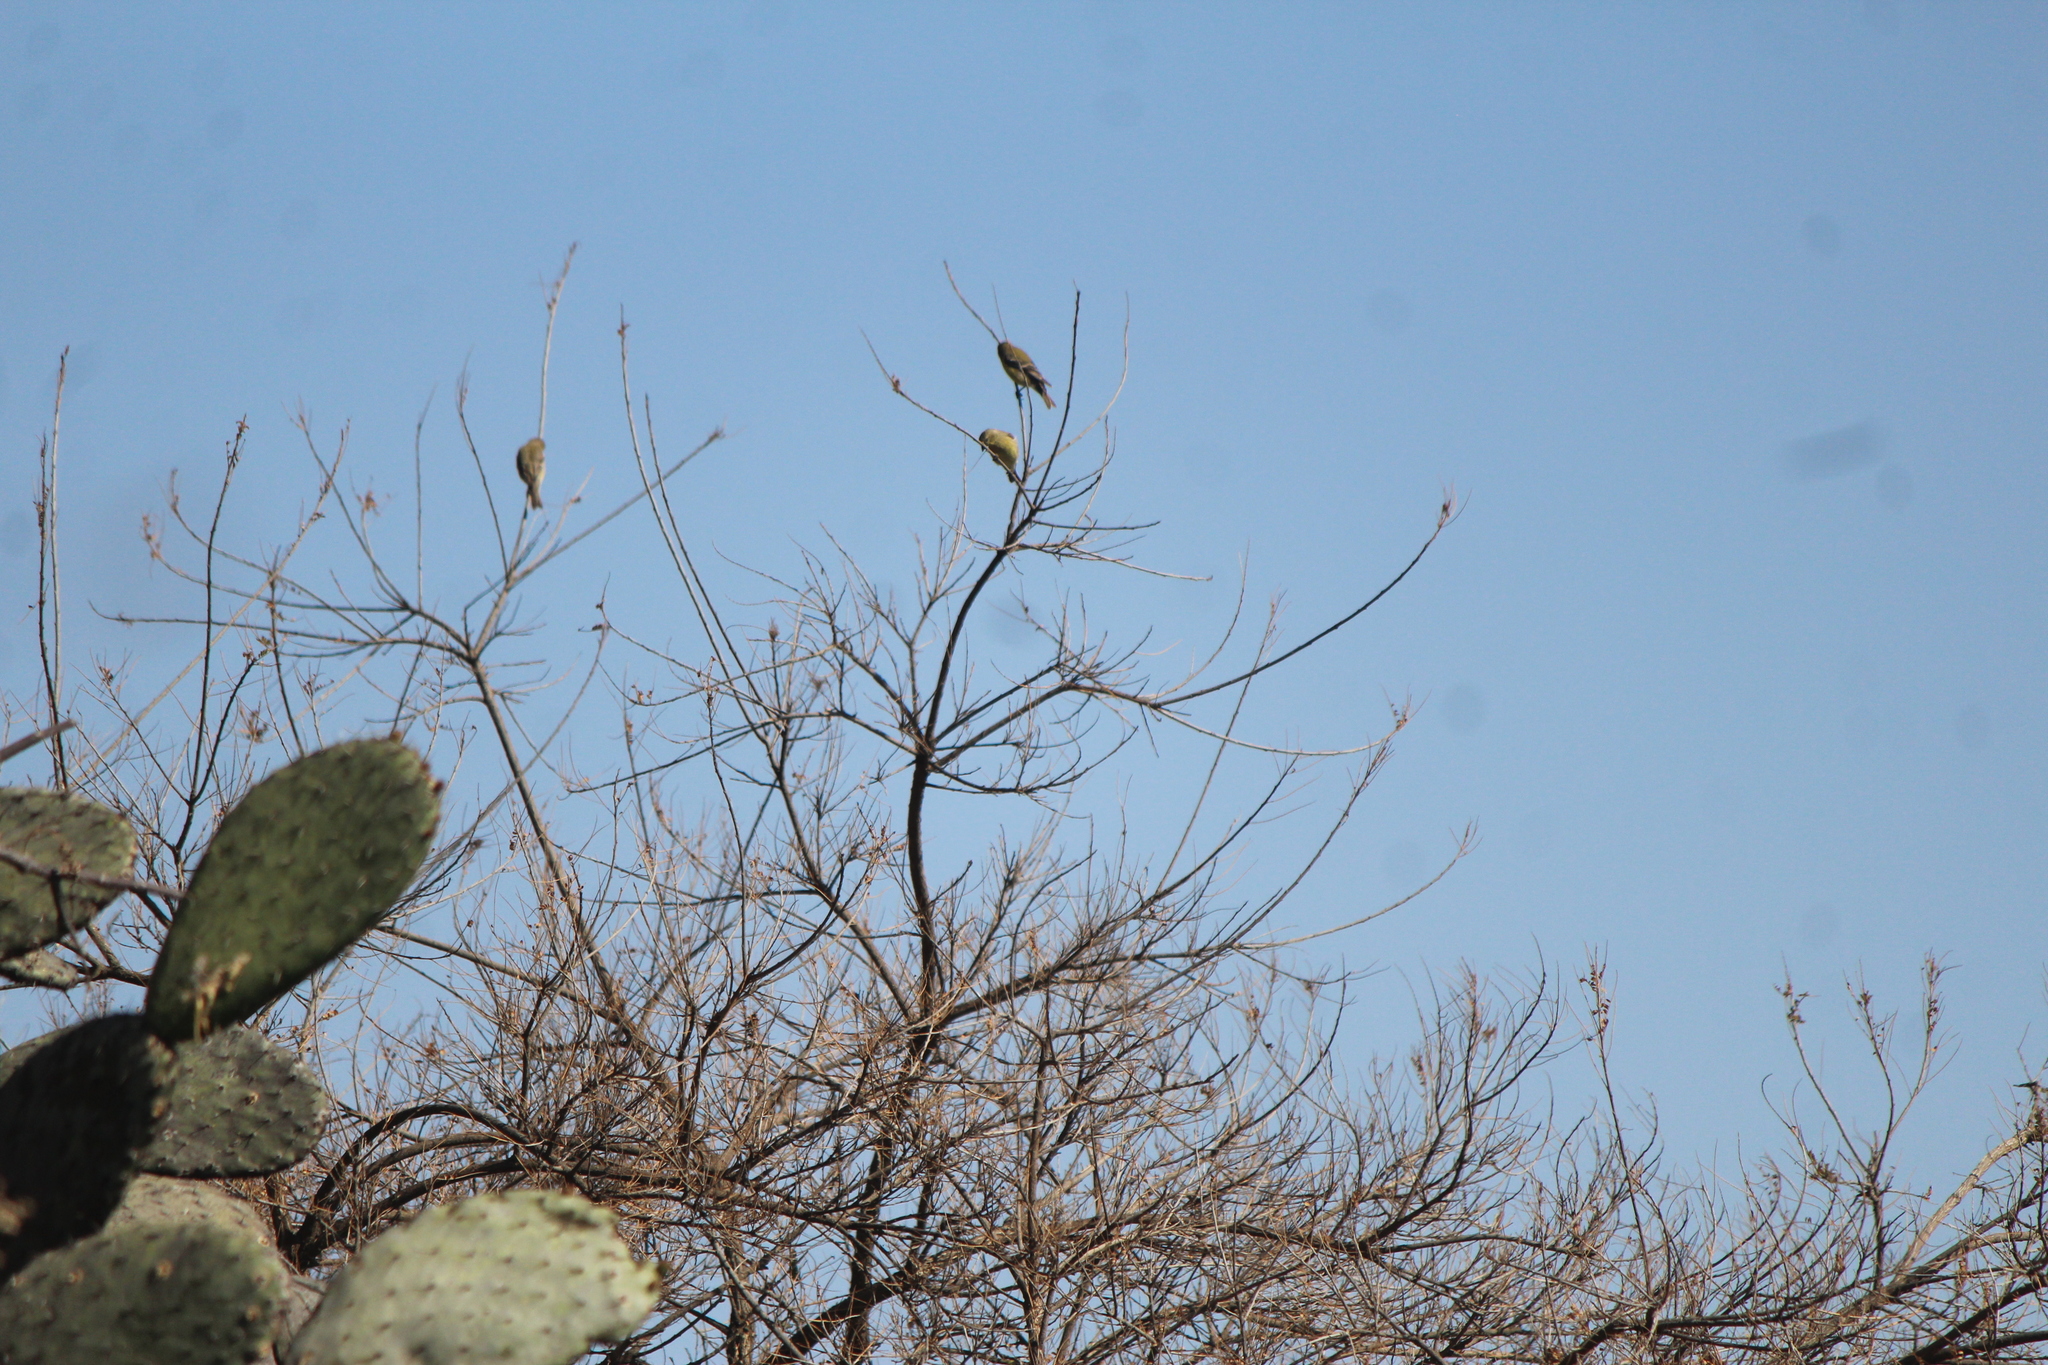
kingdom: Animalia
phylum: Chordata
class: Aves
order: Passeriformes
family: Fringillidae
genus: Spinus
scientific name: Spinus psaltria
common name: Lesser goldfinch
